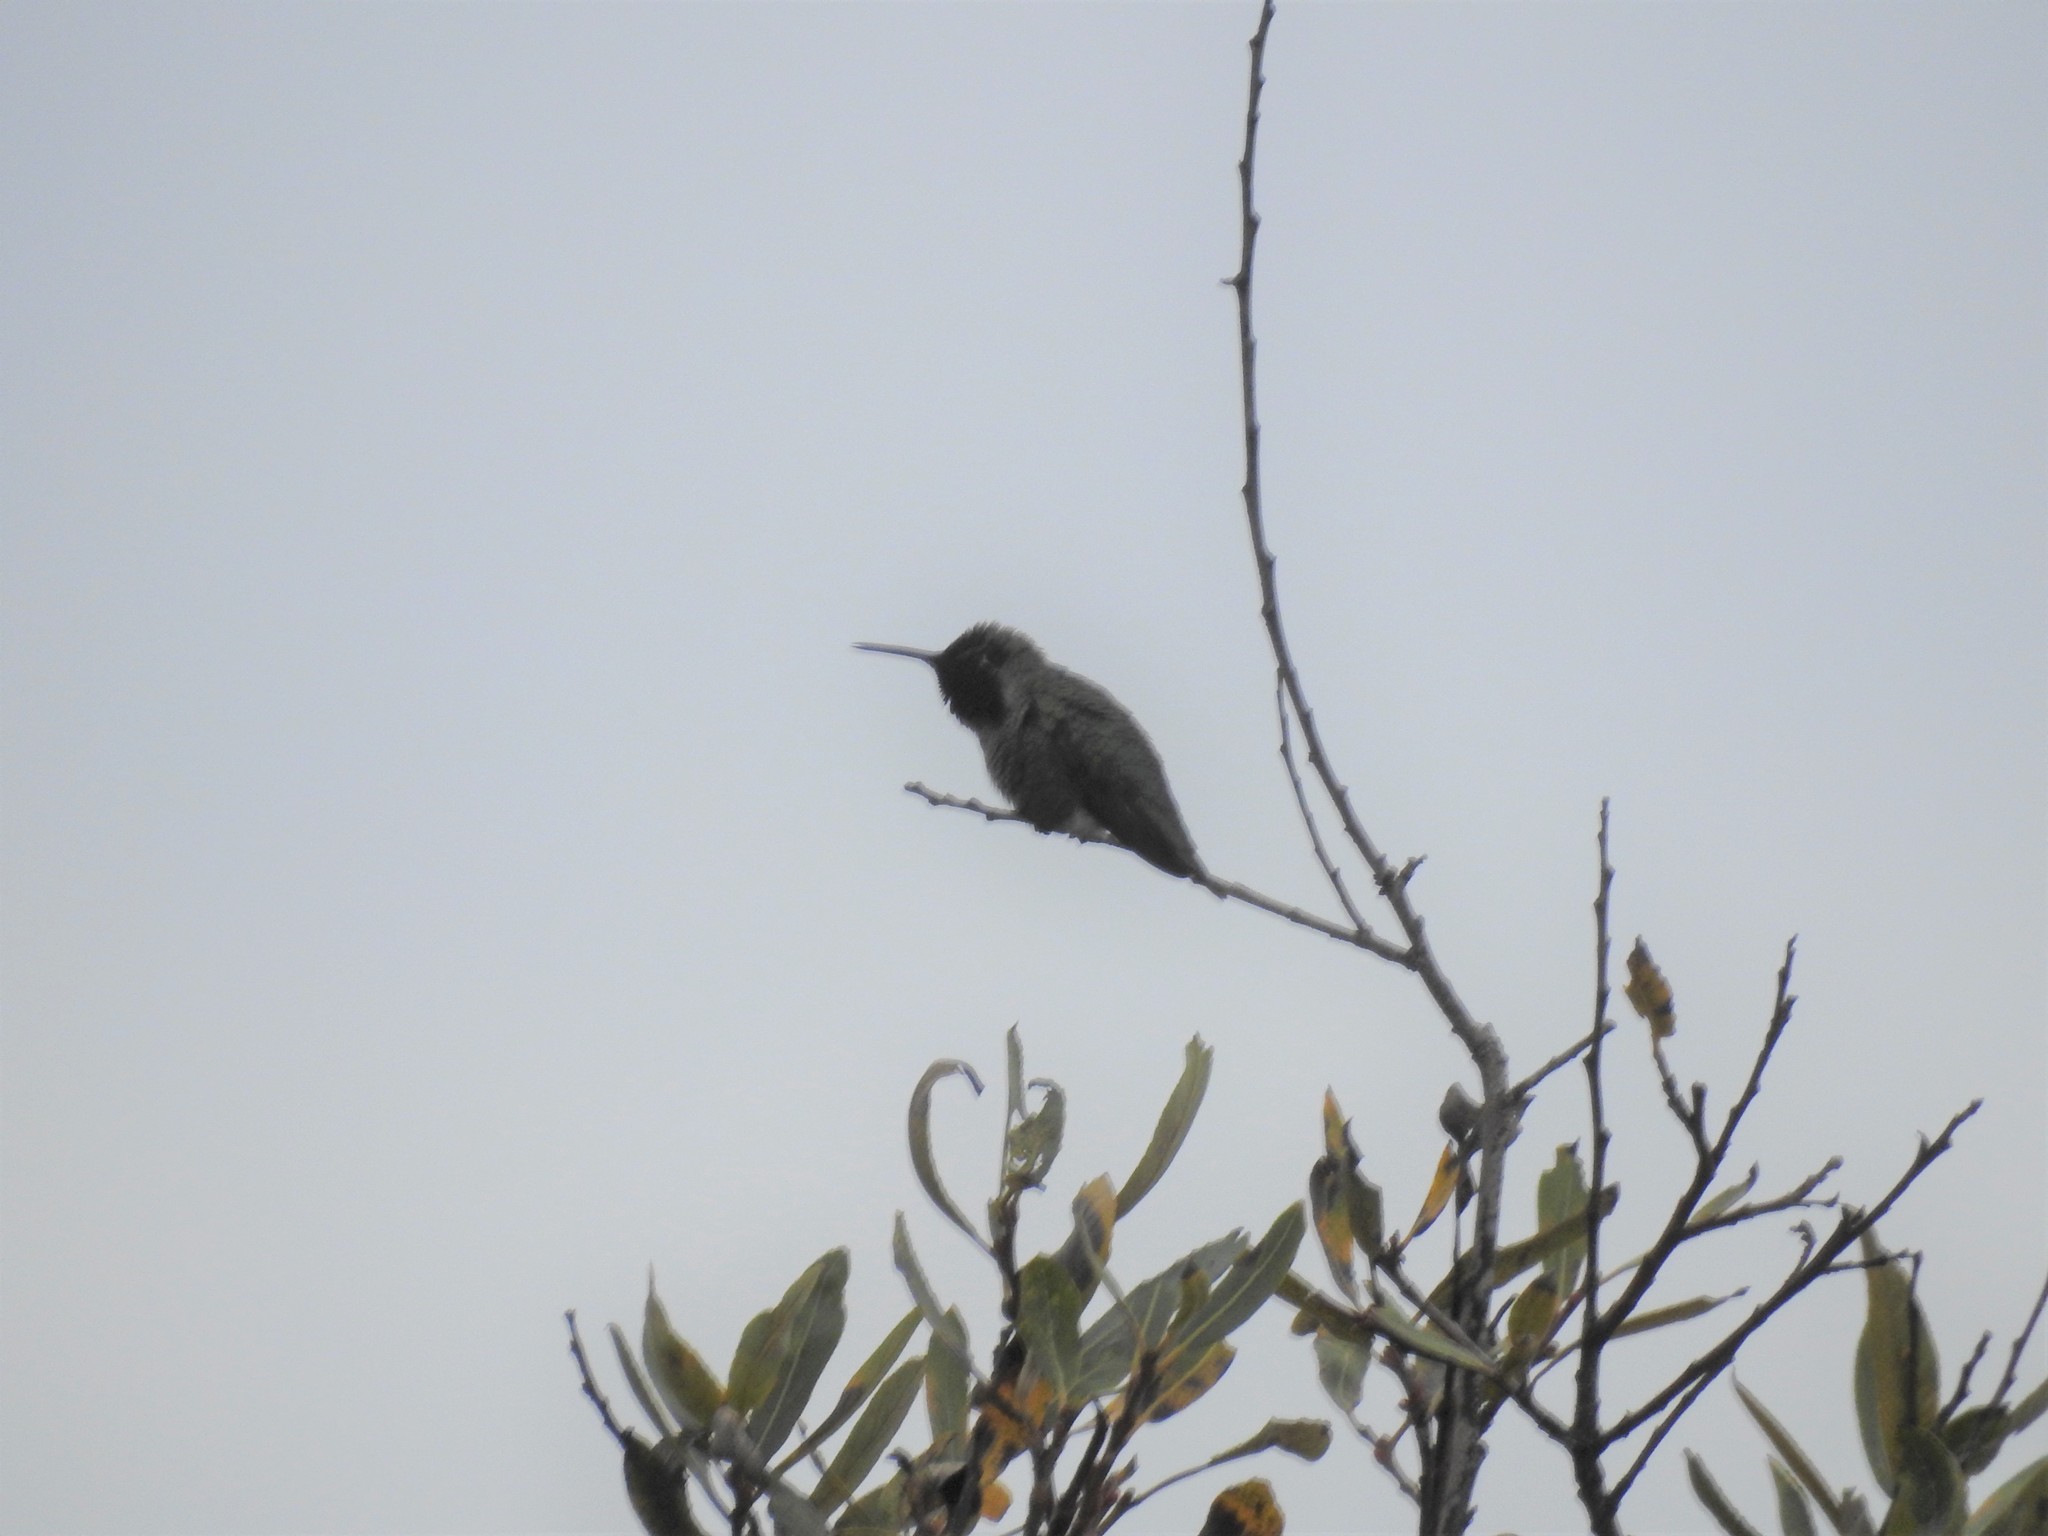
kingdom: Animalia
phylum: Chordata
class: Aves
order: Apodiformes
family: Trochilidae
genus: Calypte
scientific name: Calypte anna
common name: Anna's hummingbird
